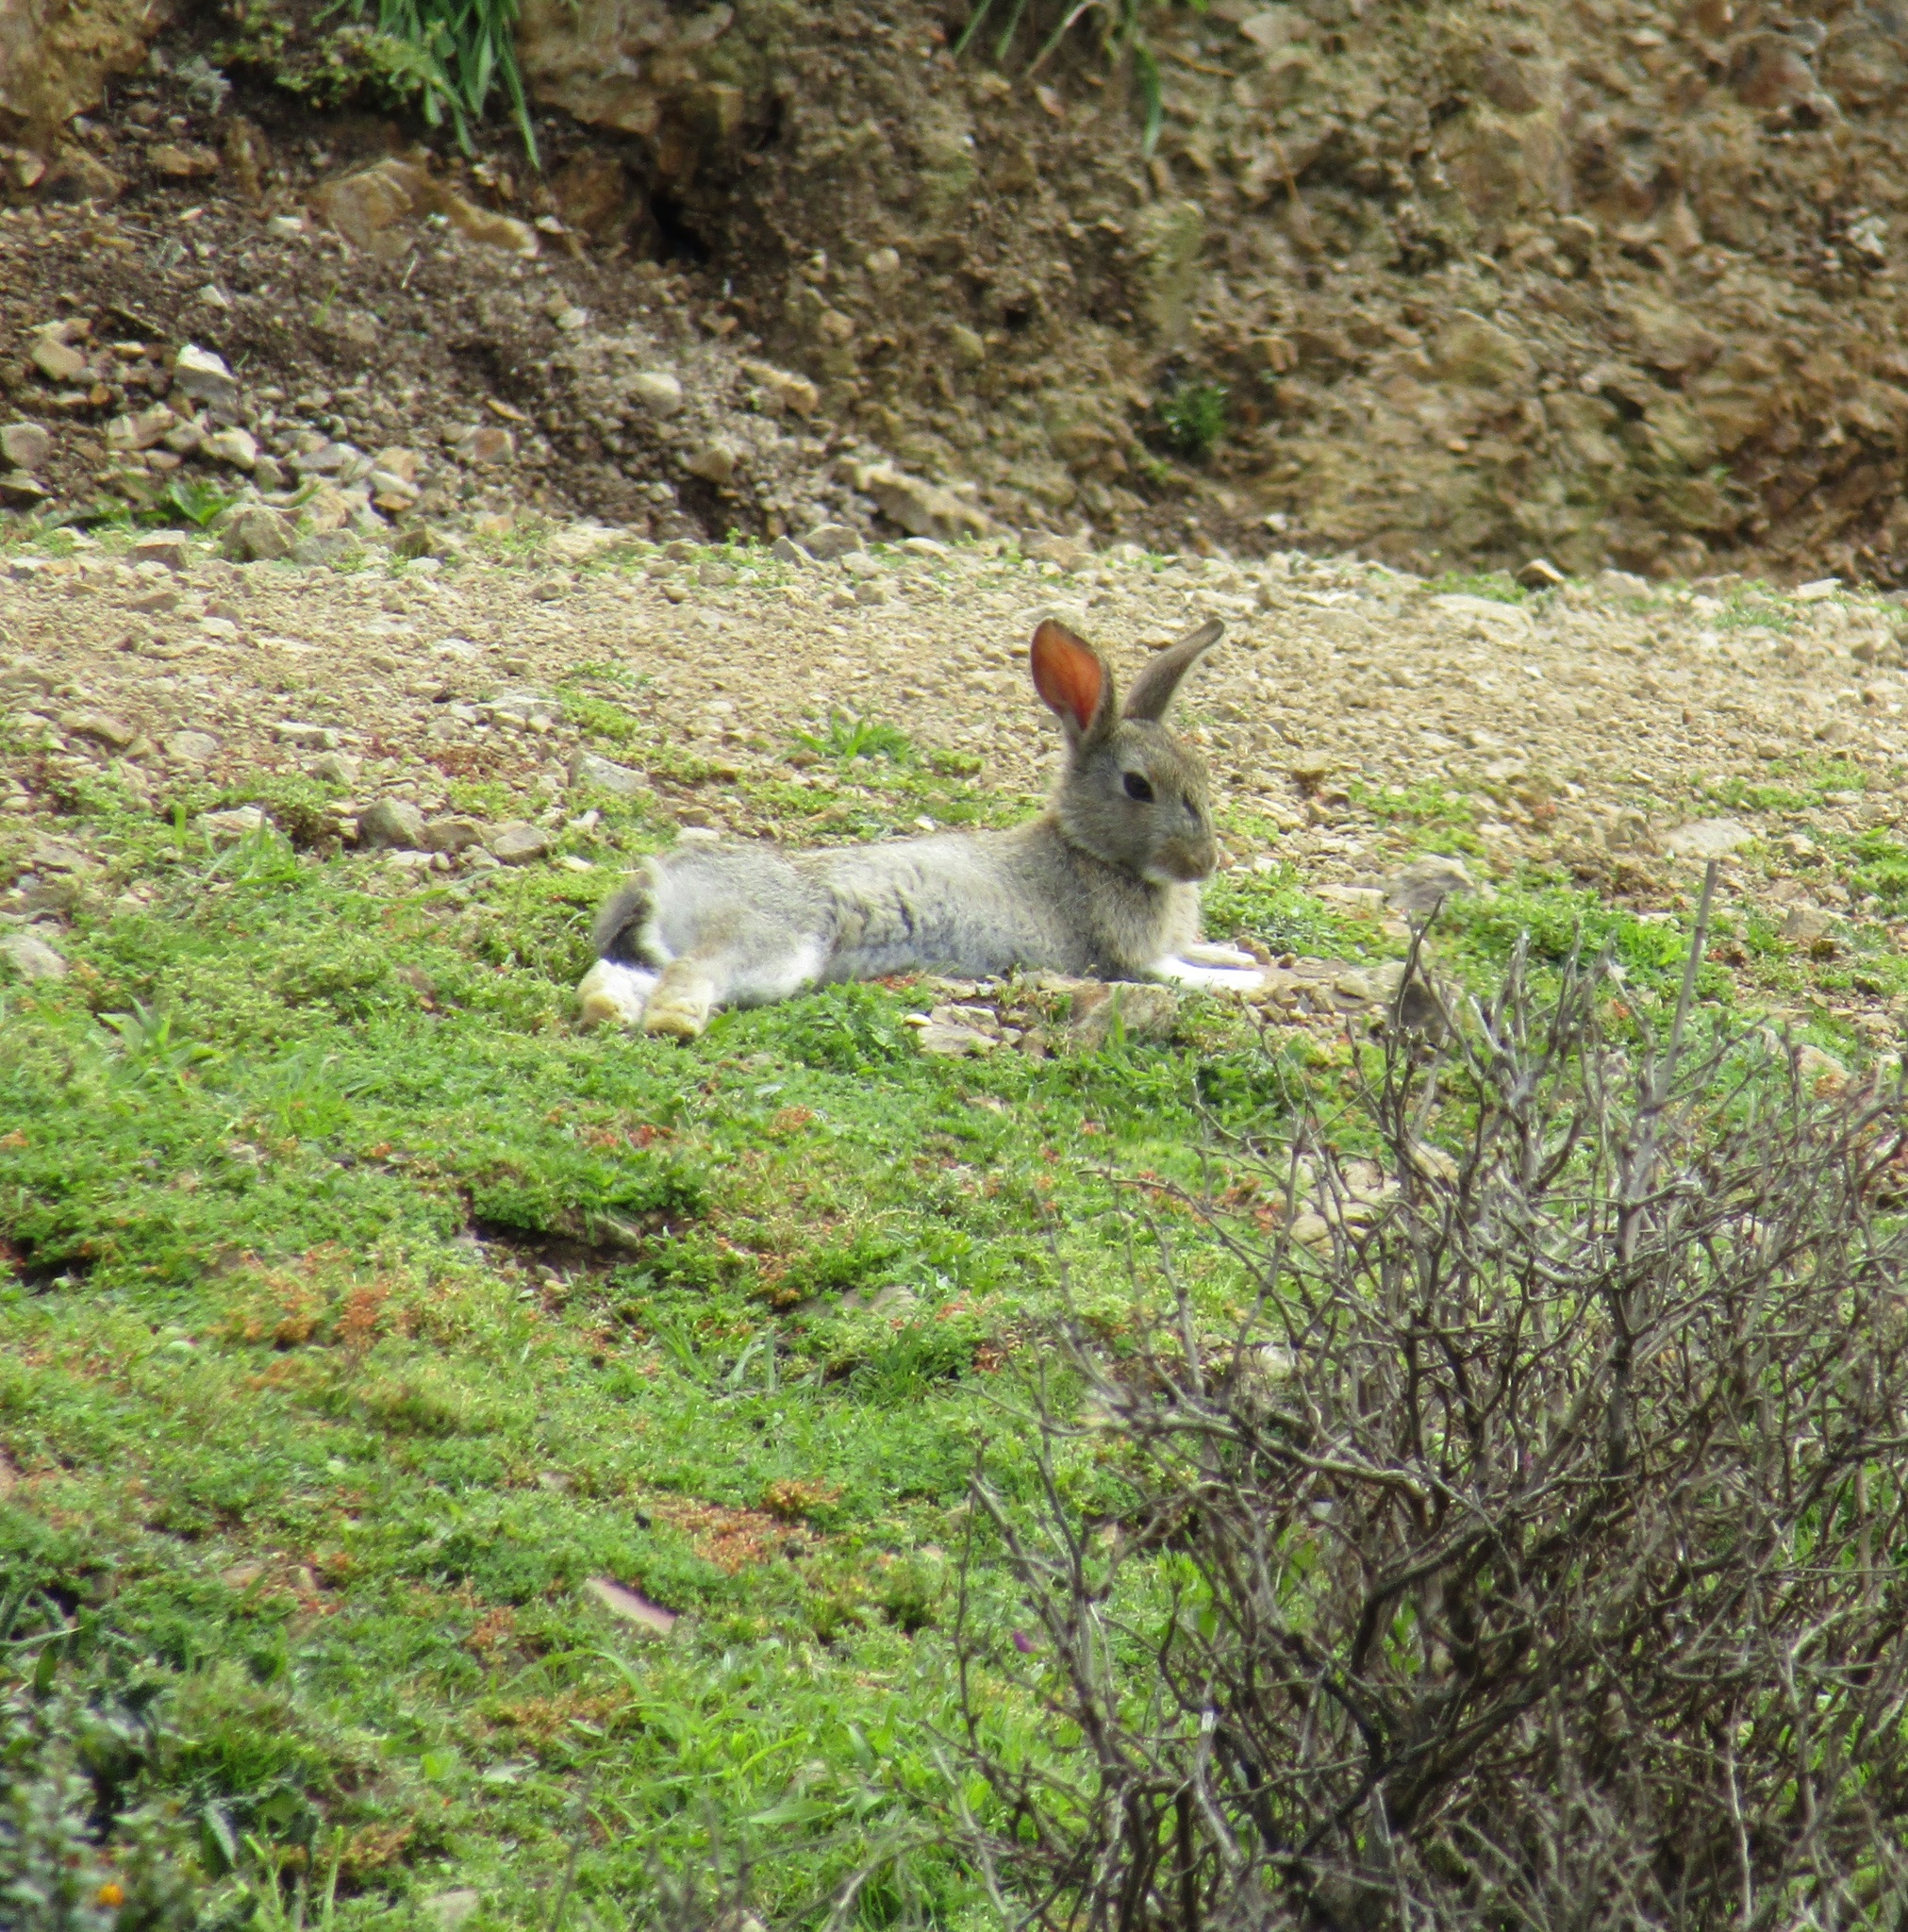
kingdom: Animalia
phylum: Chordata
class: Mammalia
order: Lagomorpha
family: Leporidae
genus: Oryctolagus
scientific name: Oryctolagus cuniculus
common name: European rabbit
